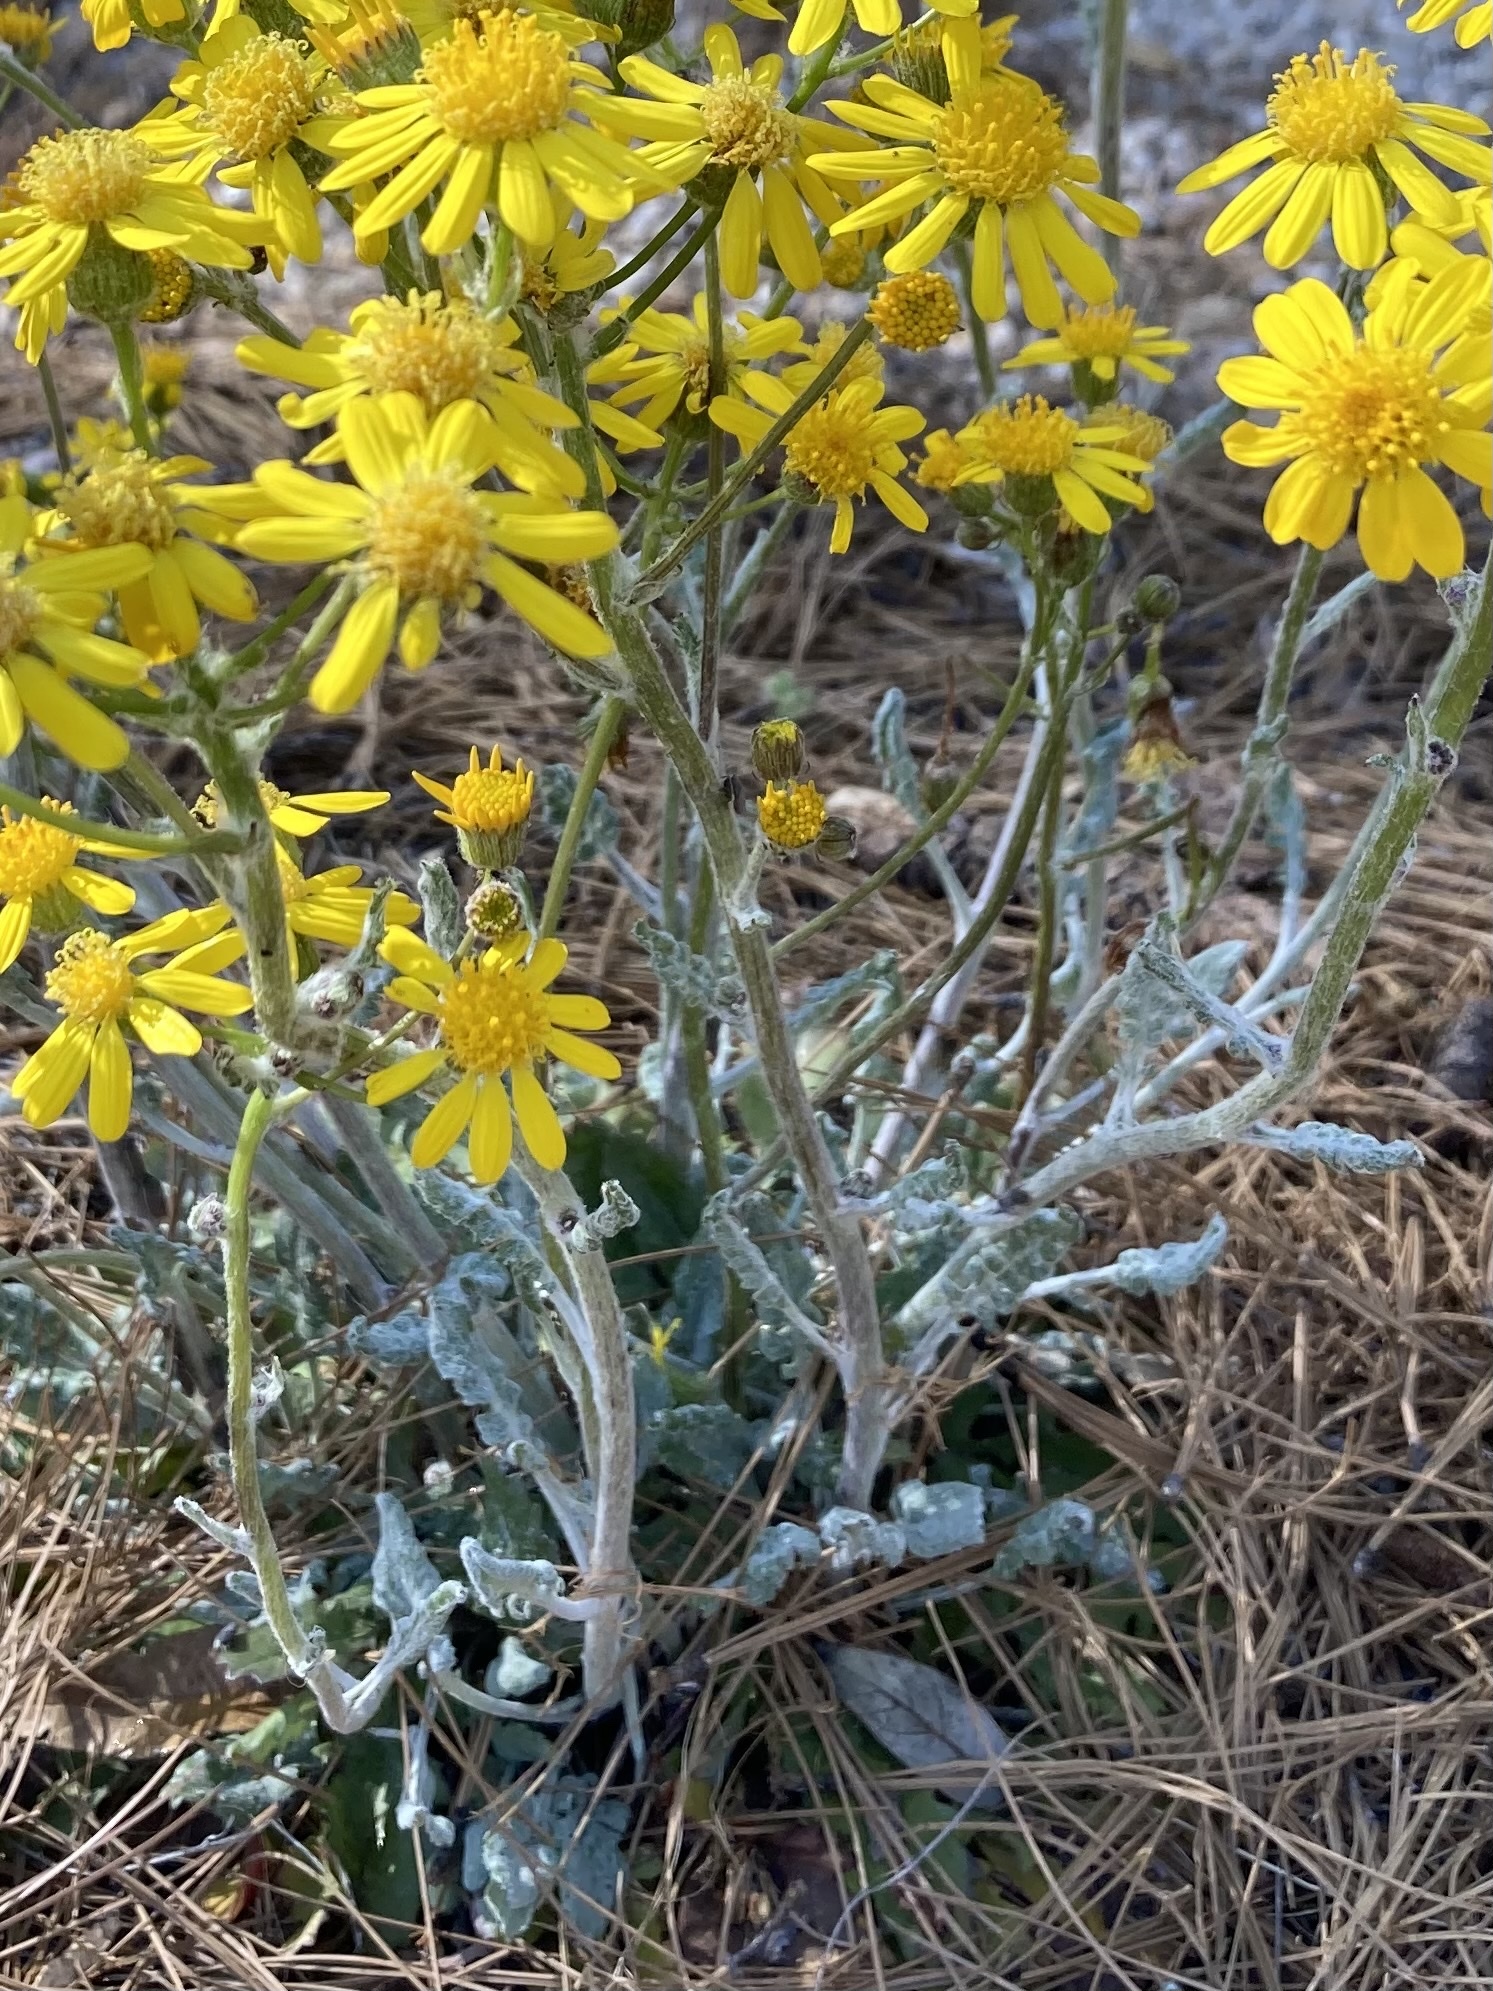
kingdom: Plantae
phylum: Tracheophyta
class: Magnoliopsida
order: Asterales
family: Asteraceae
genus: Packera
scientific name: Packera neomexicana
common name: New mexico butterweed
